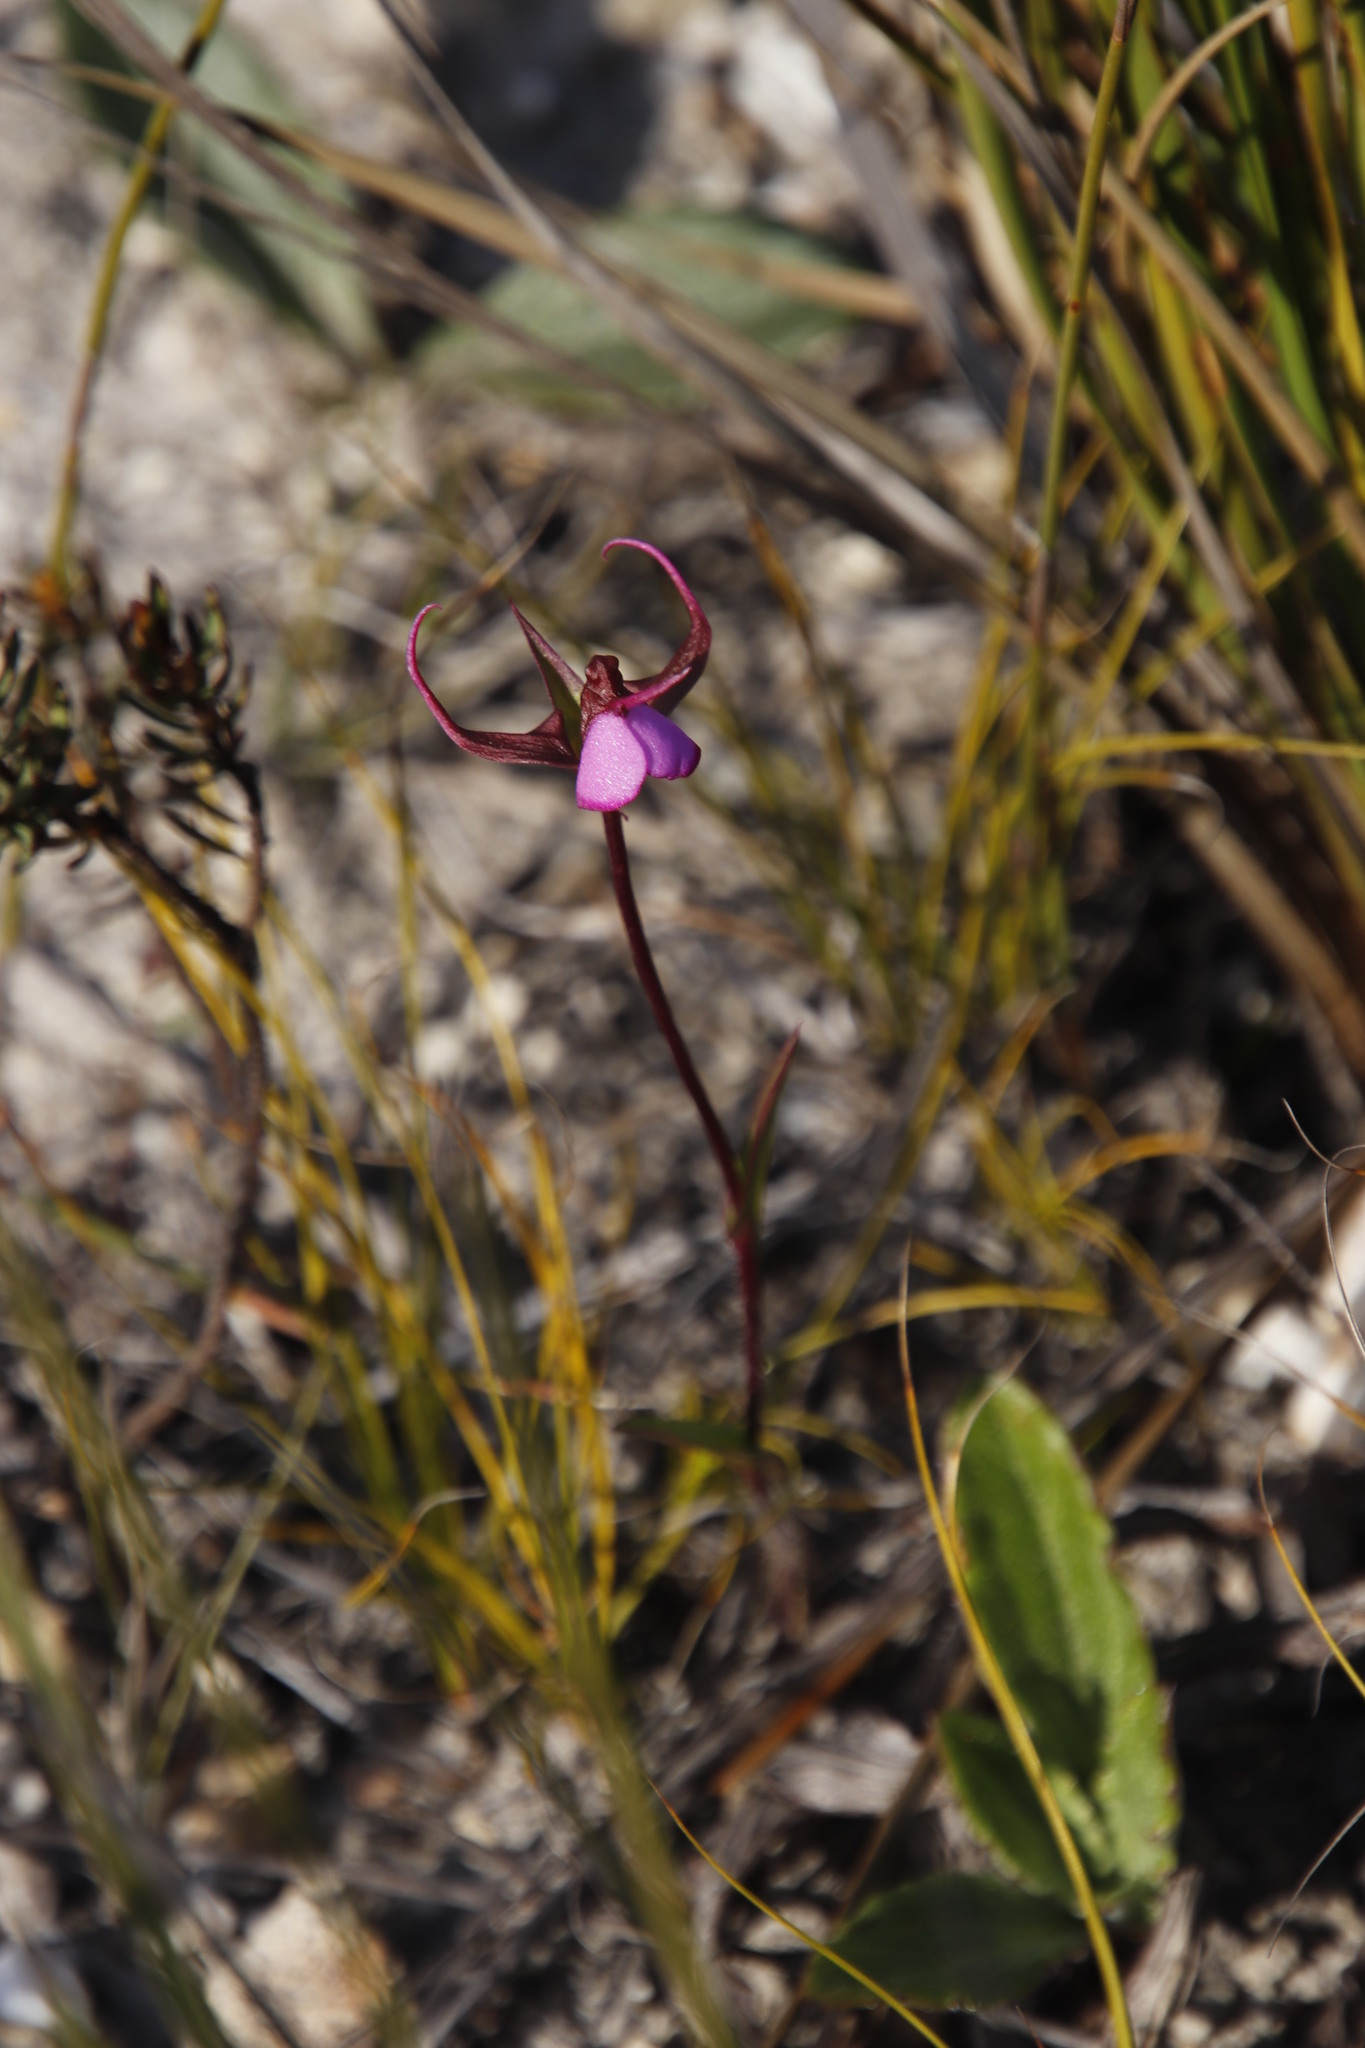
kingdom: Plantae
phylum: Tracheophyta
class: Liliopsida
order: Asparagales
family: Orchidaceae
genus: Disperis
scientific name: Disperis capensis
